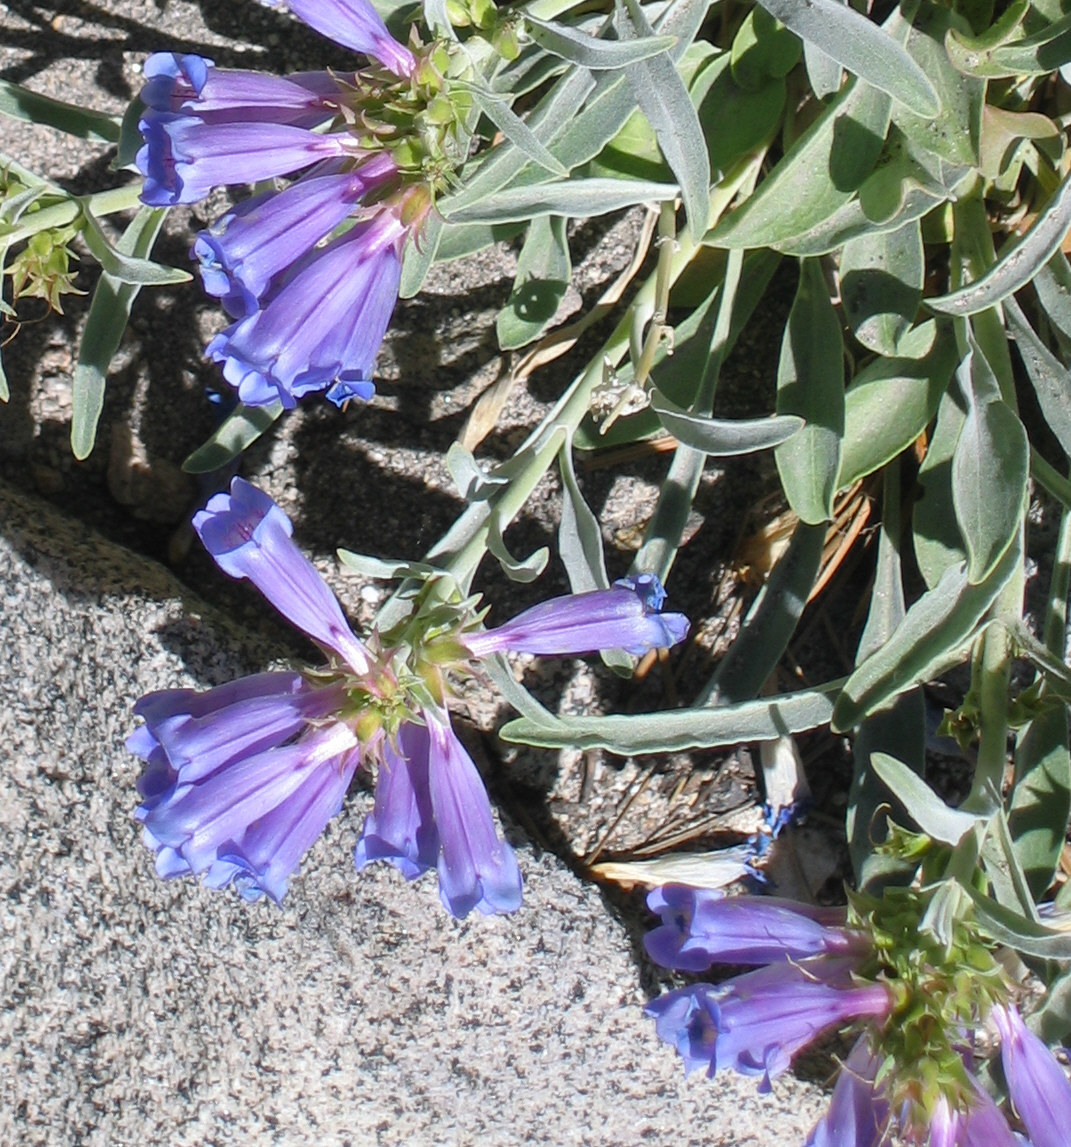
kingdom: Plantae
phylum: Tracheophyta
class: Magnoliopsida
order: Lamiales
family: Plantaginaceae
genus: Penstemon
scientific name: Penstemon speciosus
